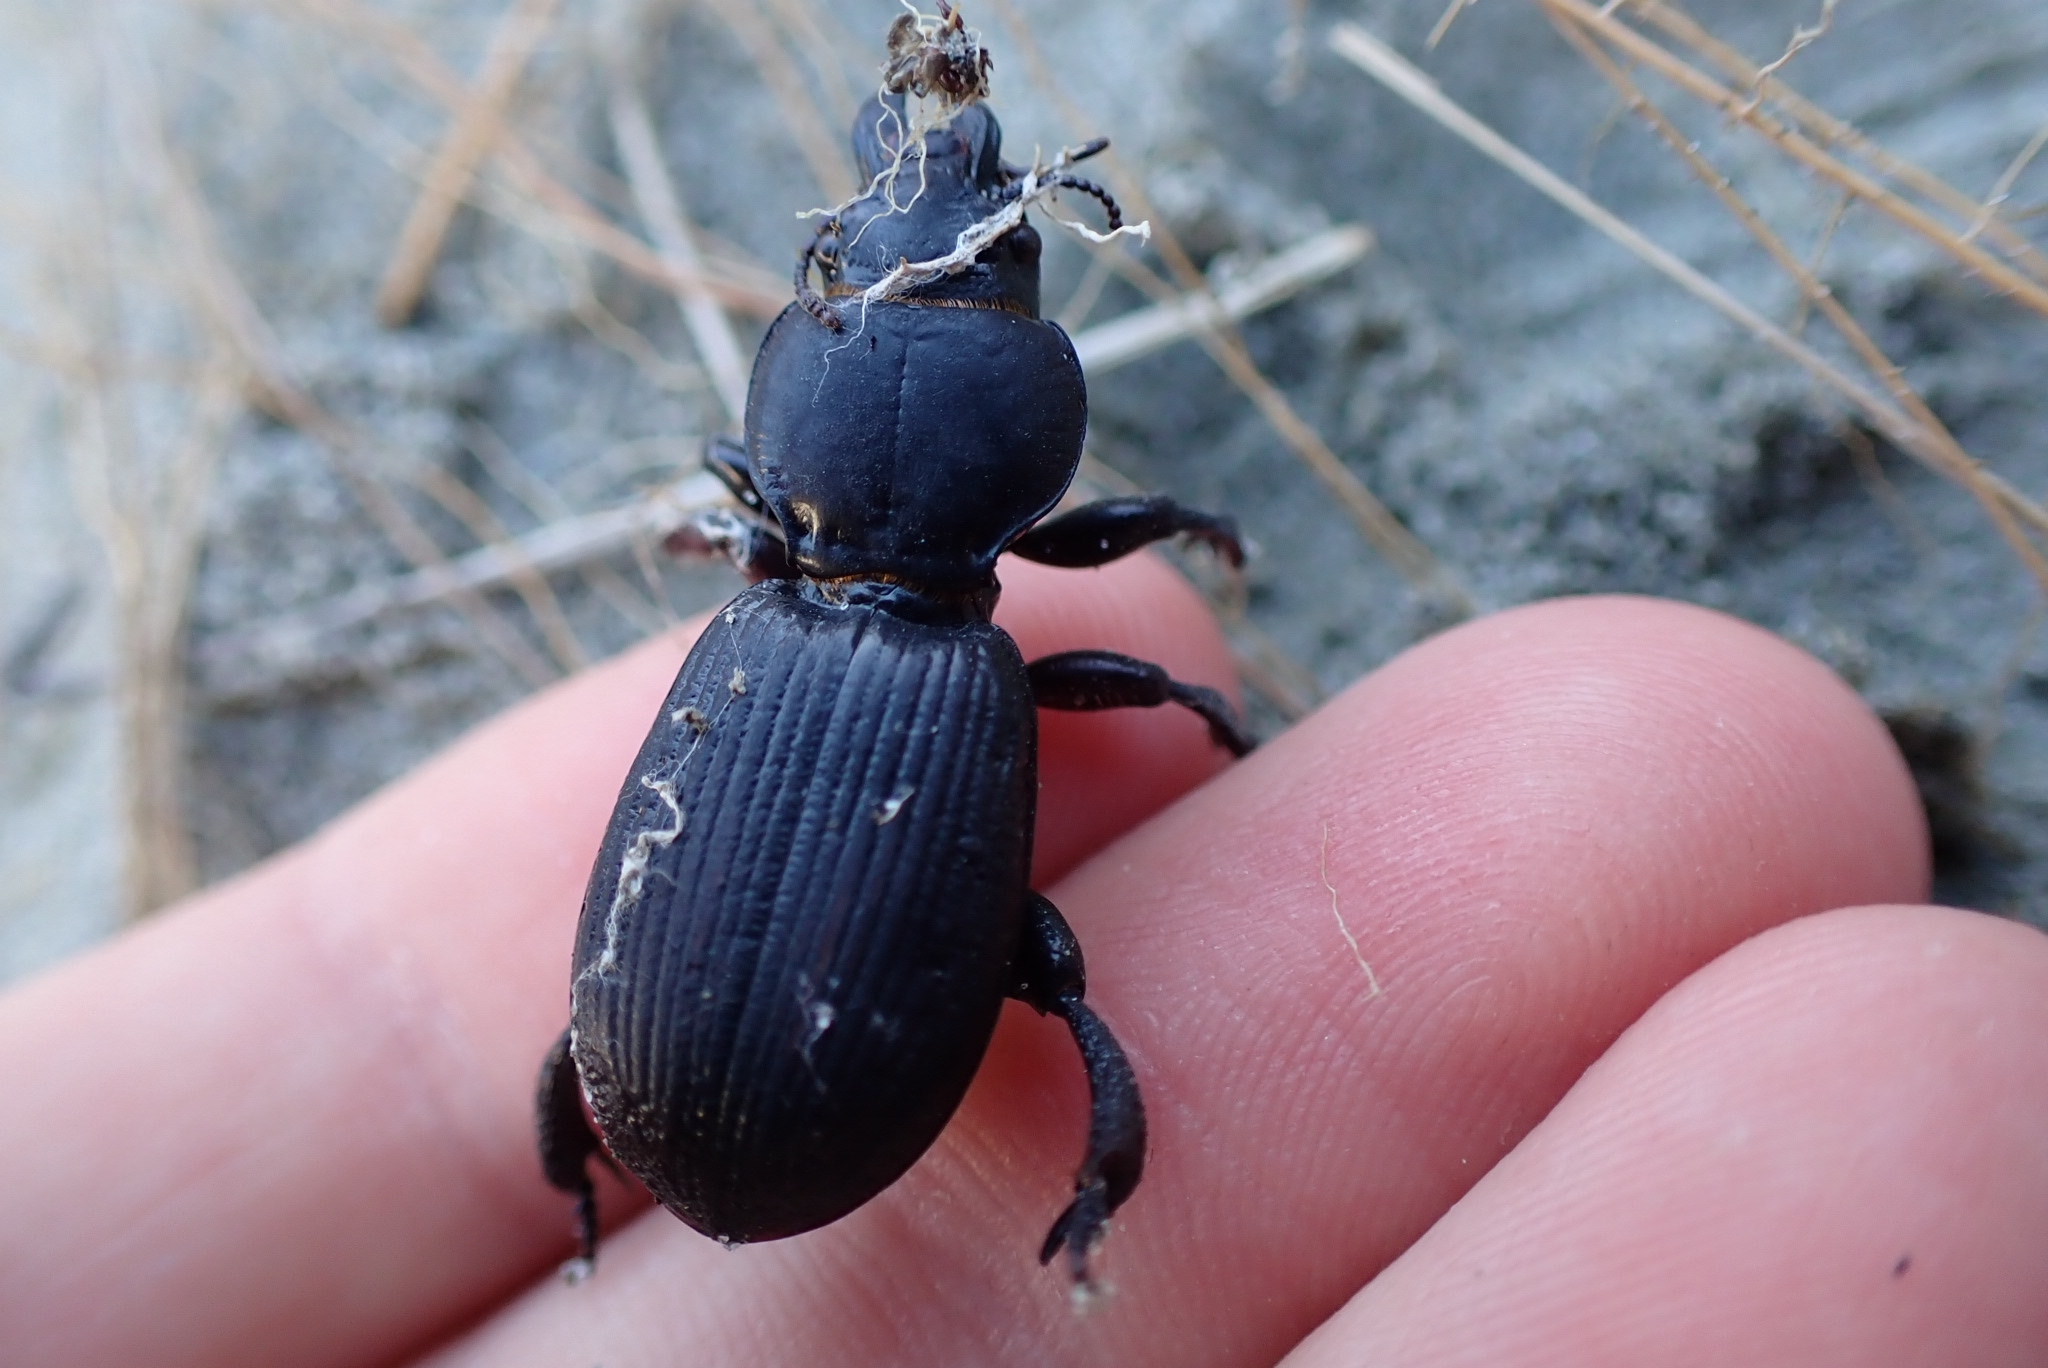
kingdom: Animalia
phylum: Arthropoda
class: Insecta
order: Coleoptera
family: Carabidae
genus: Mecodema
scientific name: Mecodema antarcticum
